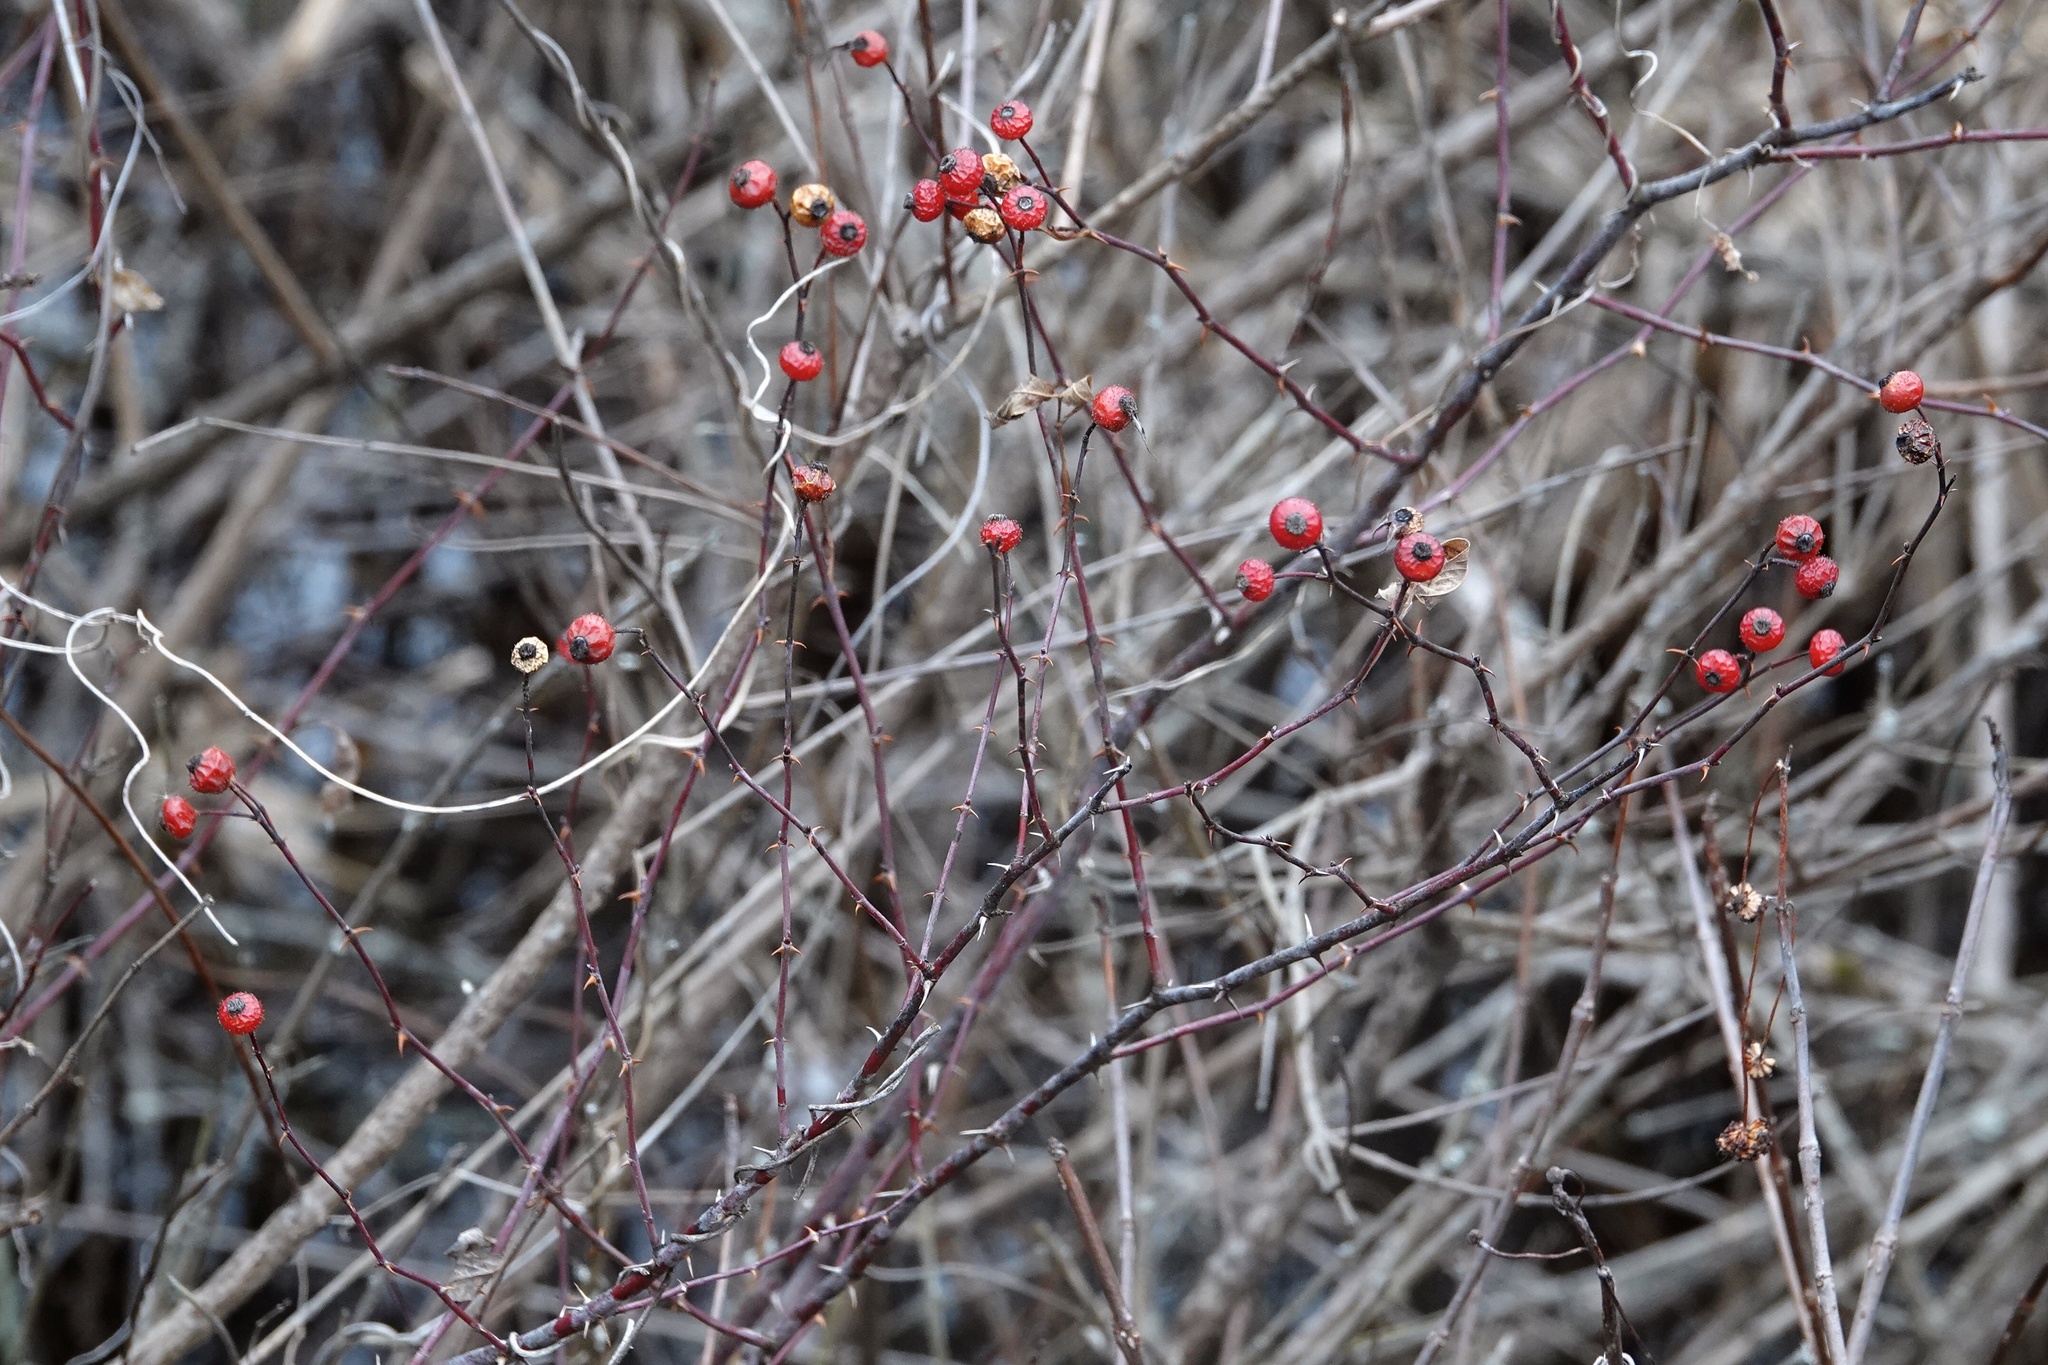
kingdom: Plantae
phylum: Tracheophyta
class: Magnoliopsida
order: Rosales
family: Rosaceae
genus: Rosa
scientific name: Rosa palustris
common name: Swamp rose
